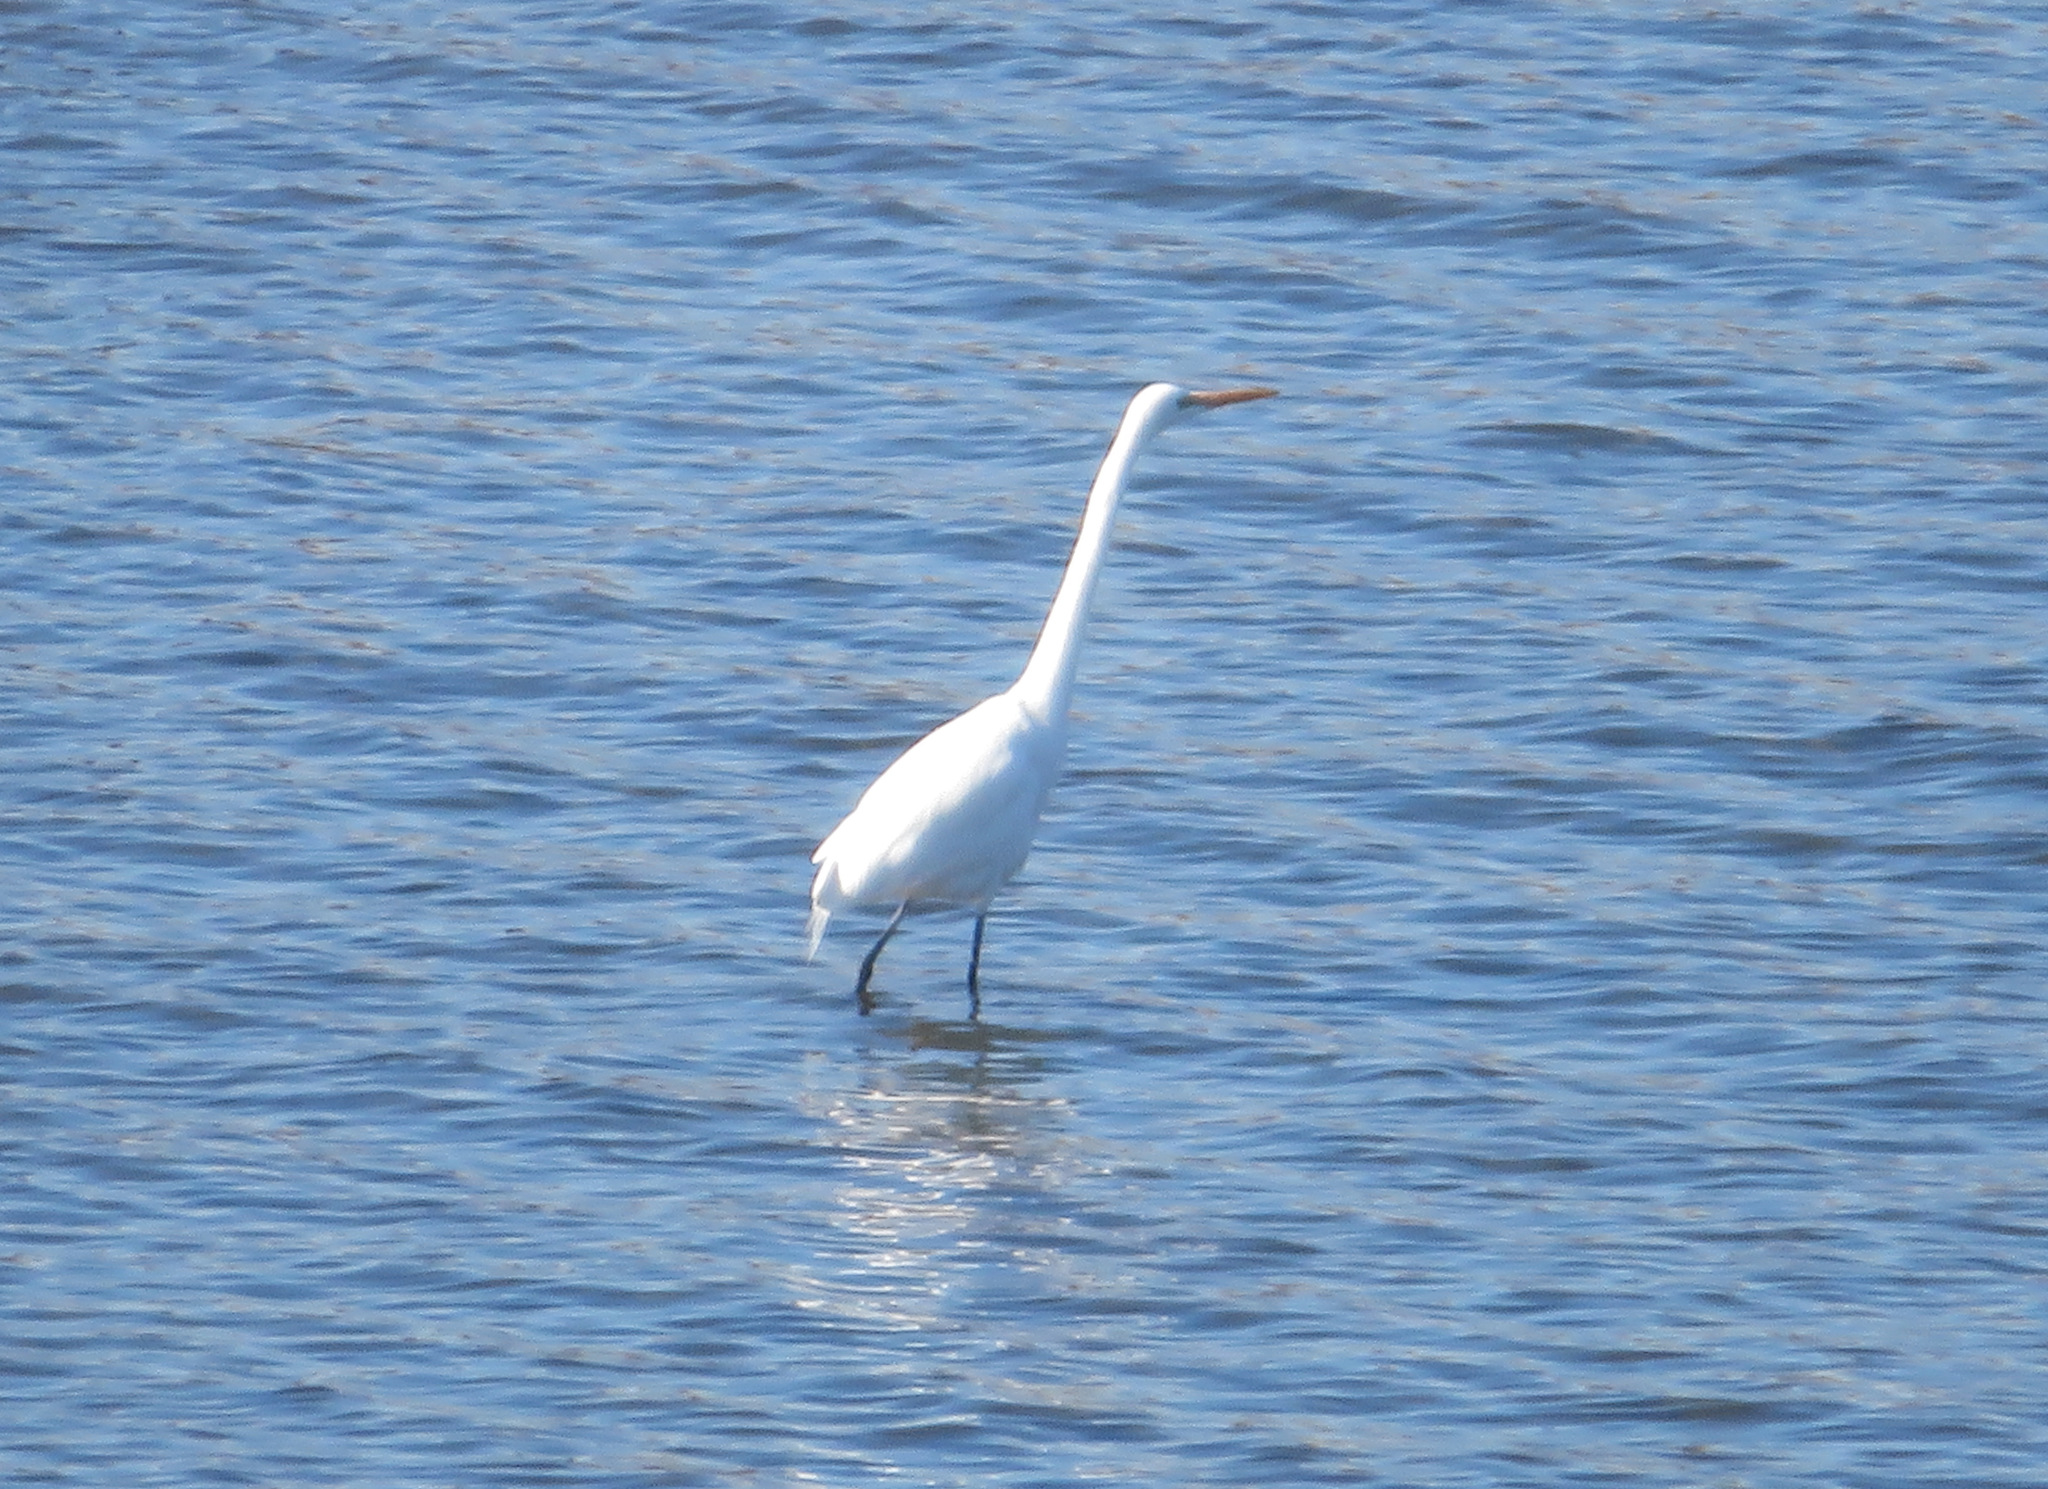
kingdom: Animalia
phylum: Chordata
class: Aves
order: Pelecaniformes
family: Ardeidae
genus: Ardea
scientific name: Ardea alba
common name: Great egret
